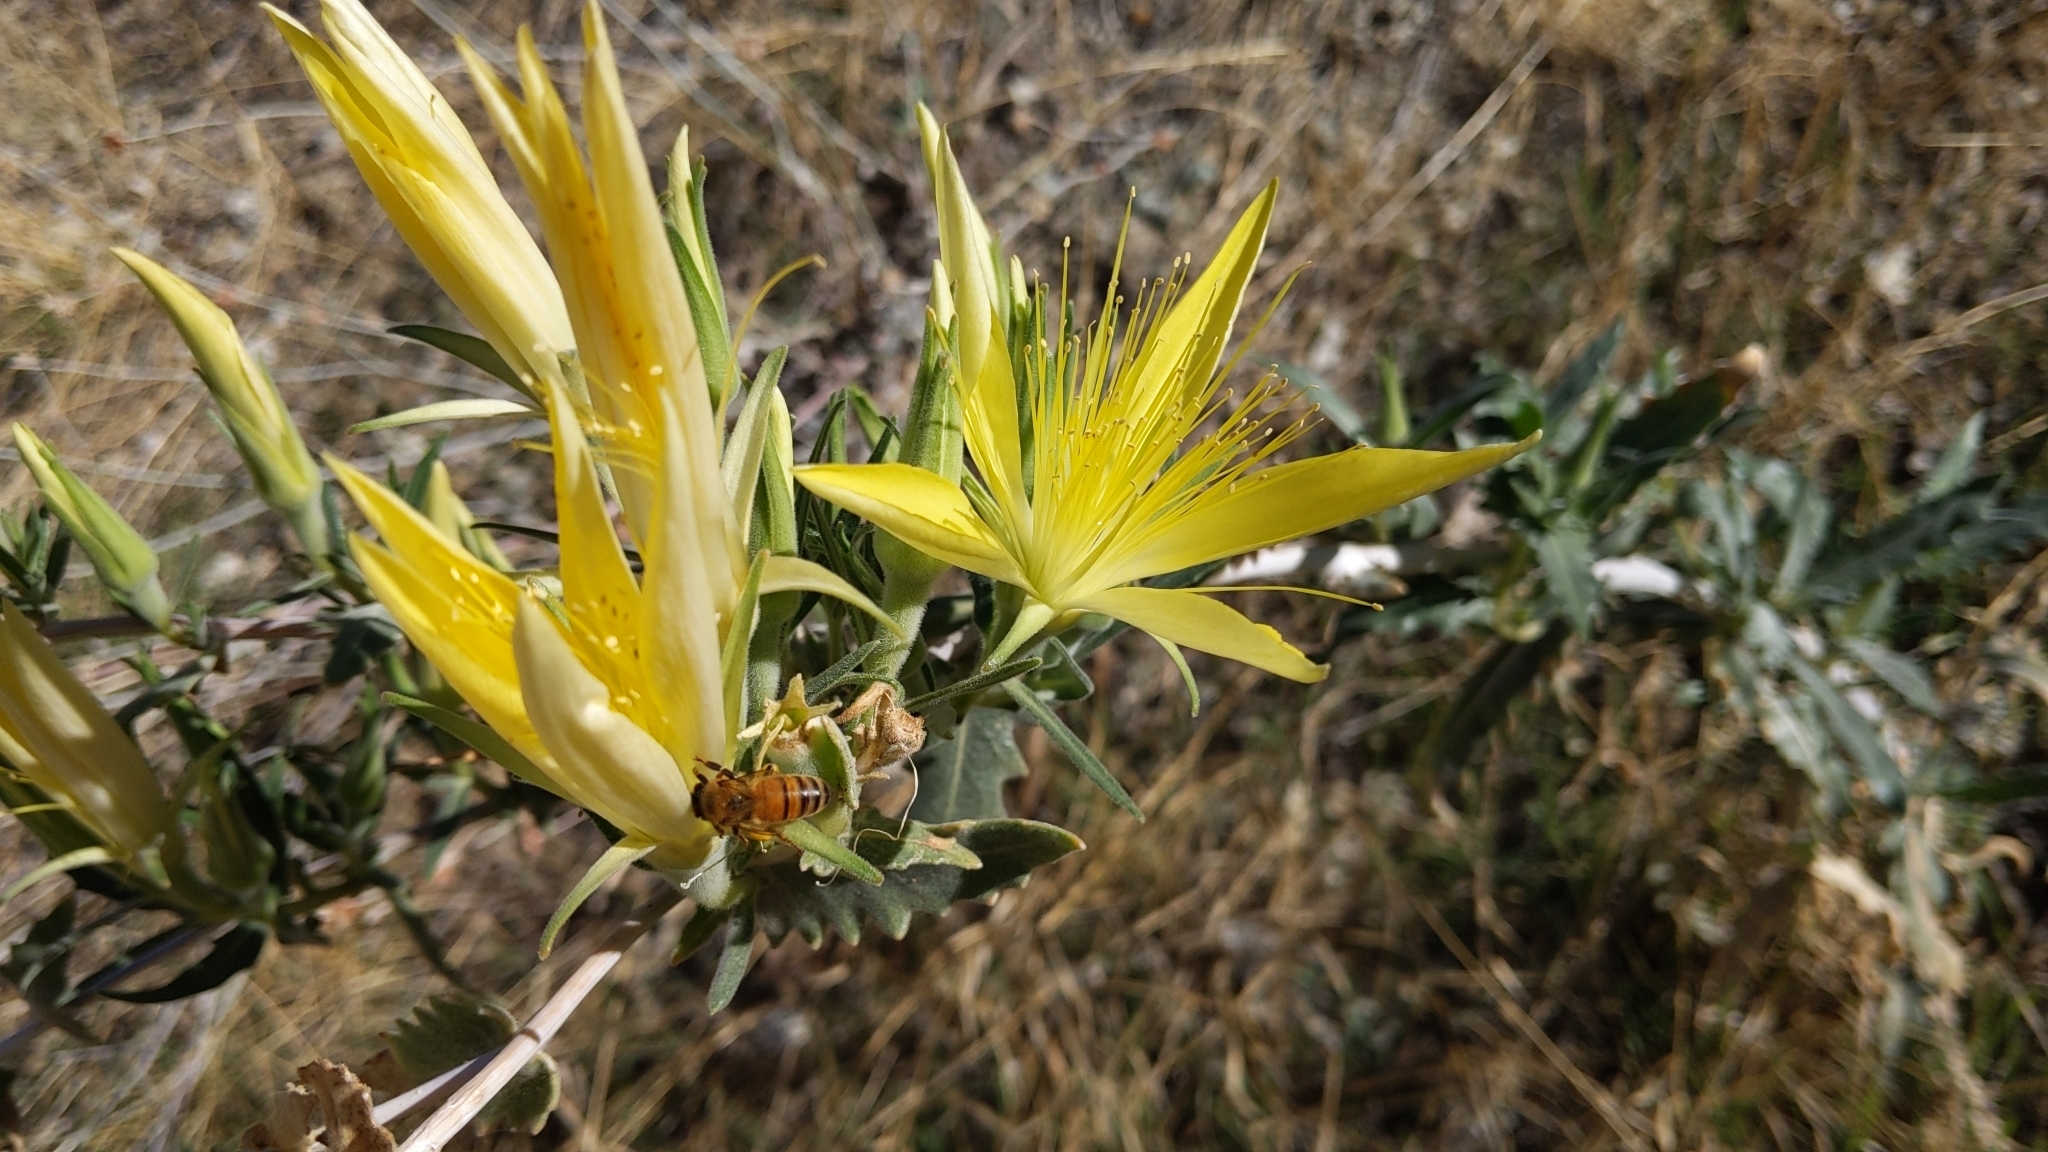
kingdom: Plantae
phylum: Tracheophyta
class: Magnoliopsida
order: Cornales
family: Loasaceae
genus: Mentzelia
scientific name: Mentzelia laevicaulis
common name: Smooth-stem blazingstar
